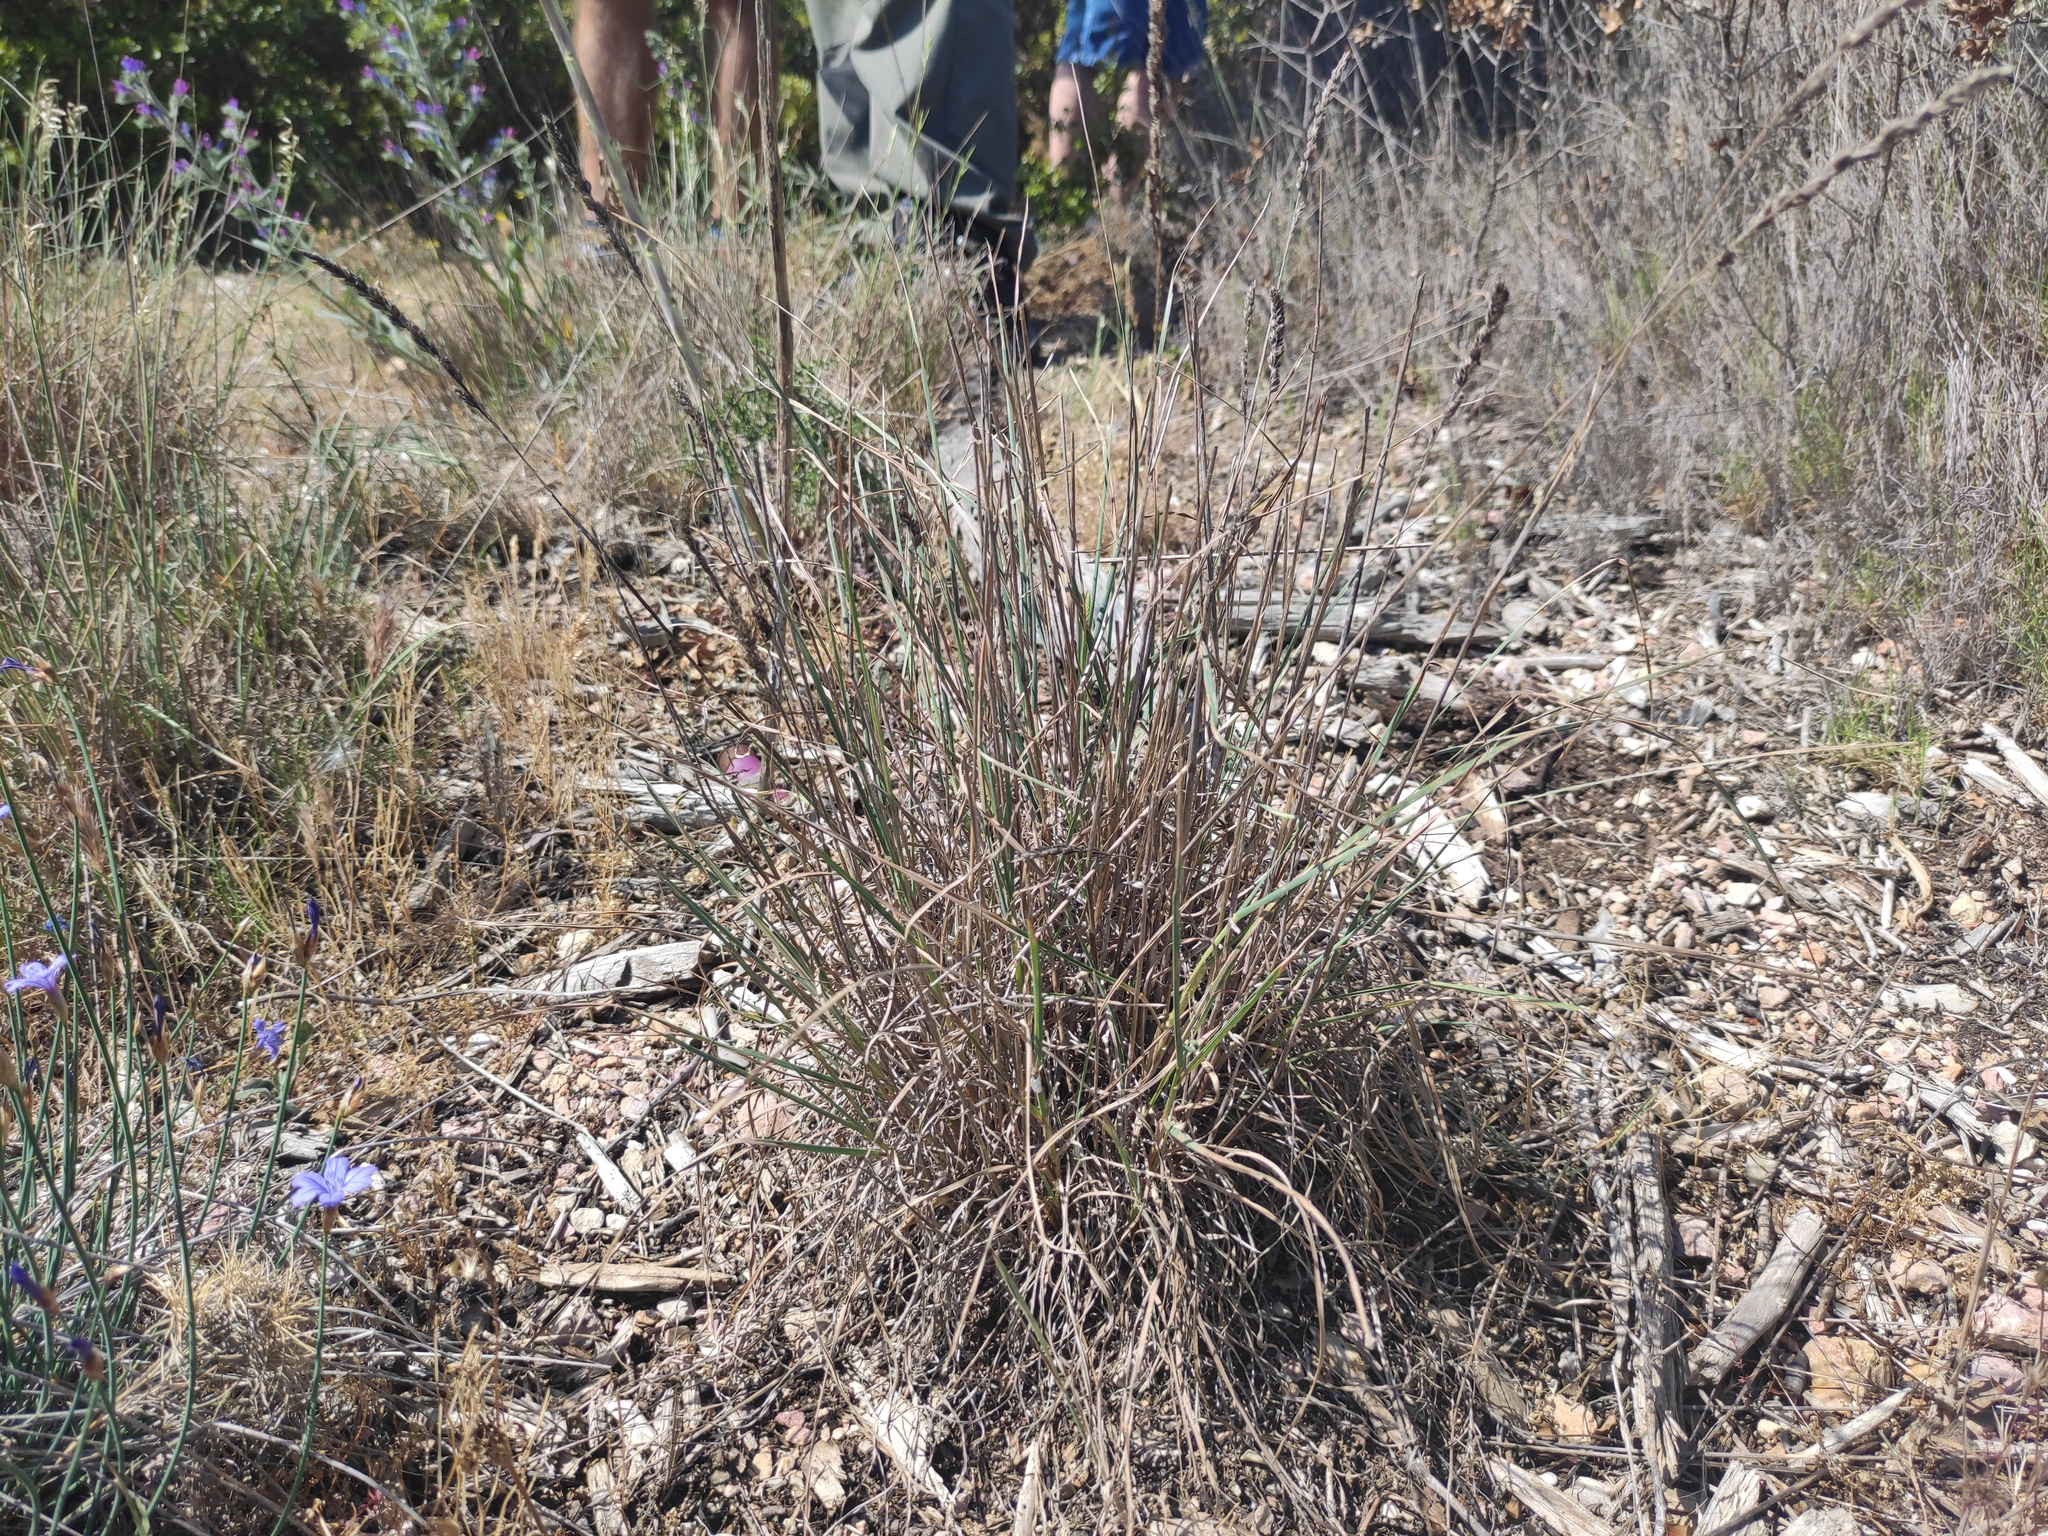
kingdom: Plantae
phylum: Tracheophyta
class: Liliopsida
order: Poales
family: Poaceae
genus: Dactylis
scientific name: Dactylis glomerata
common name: Orchardgrass
